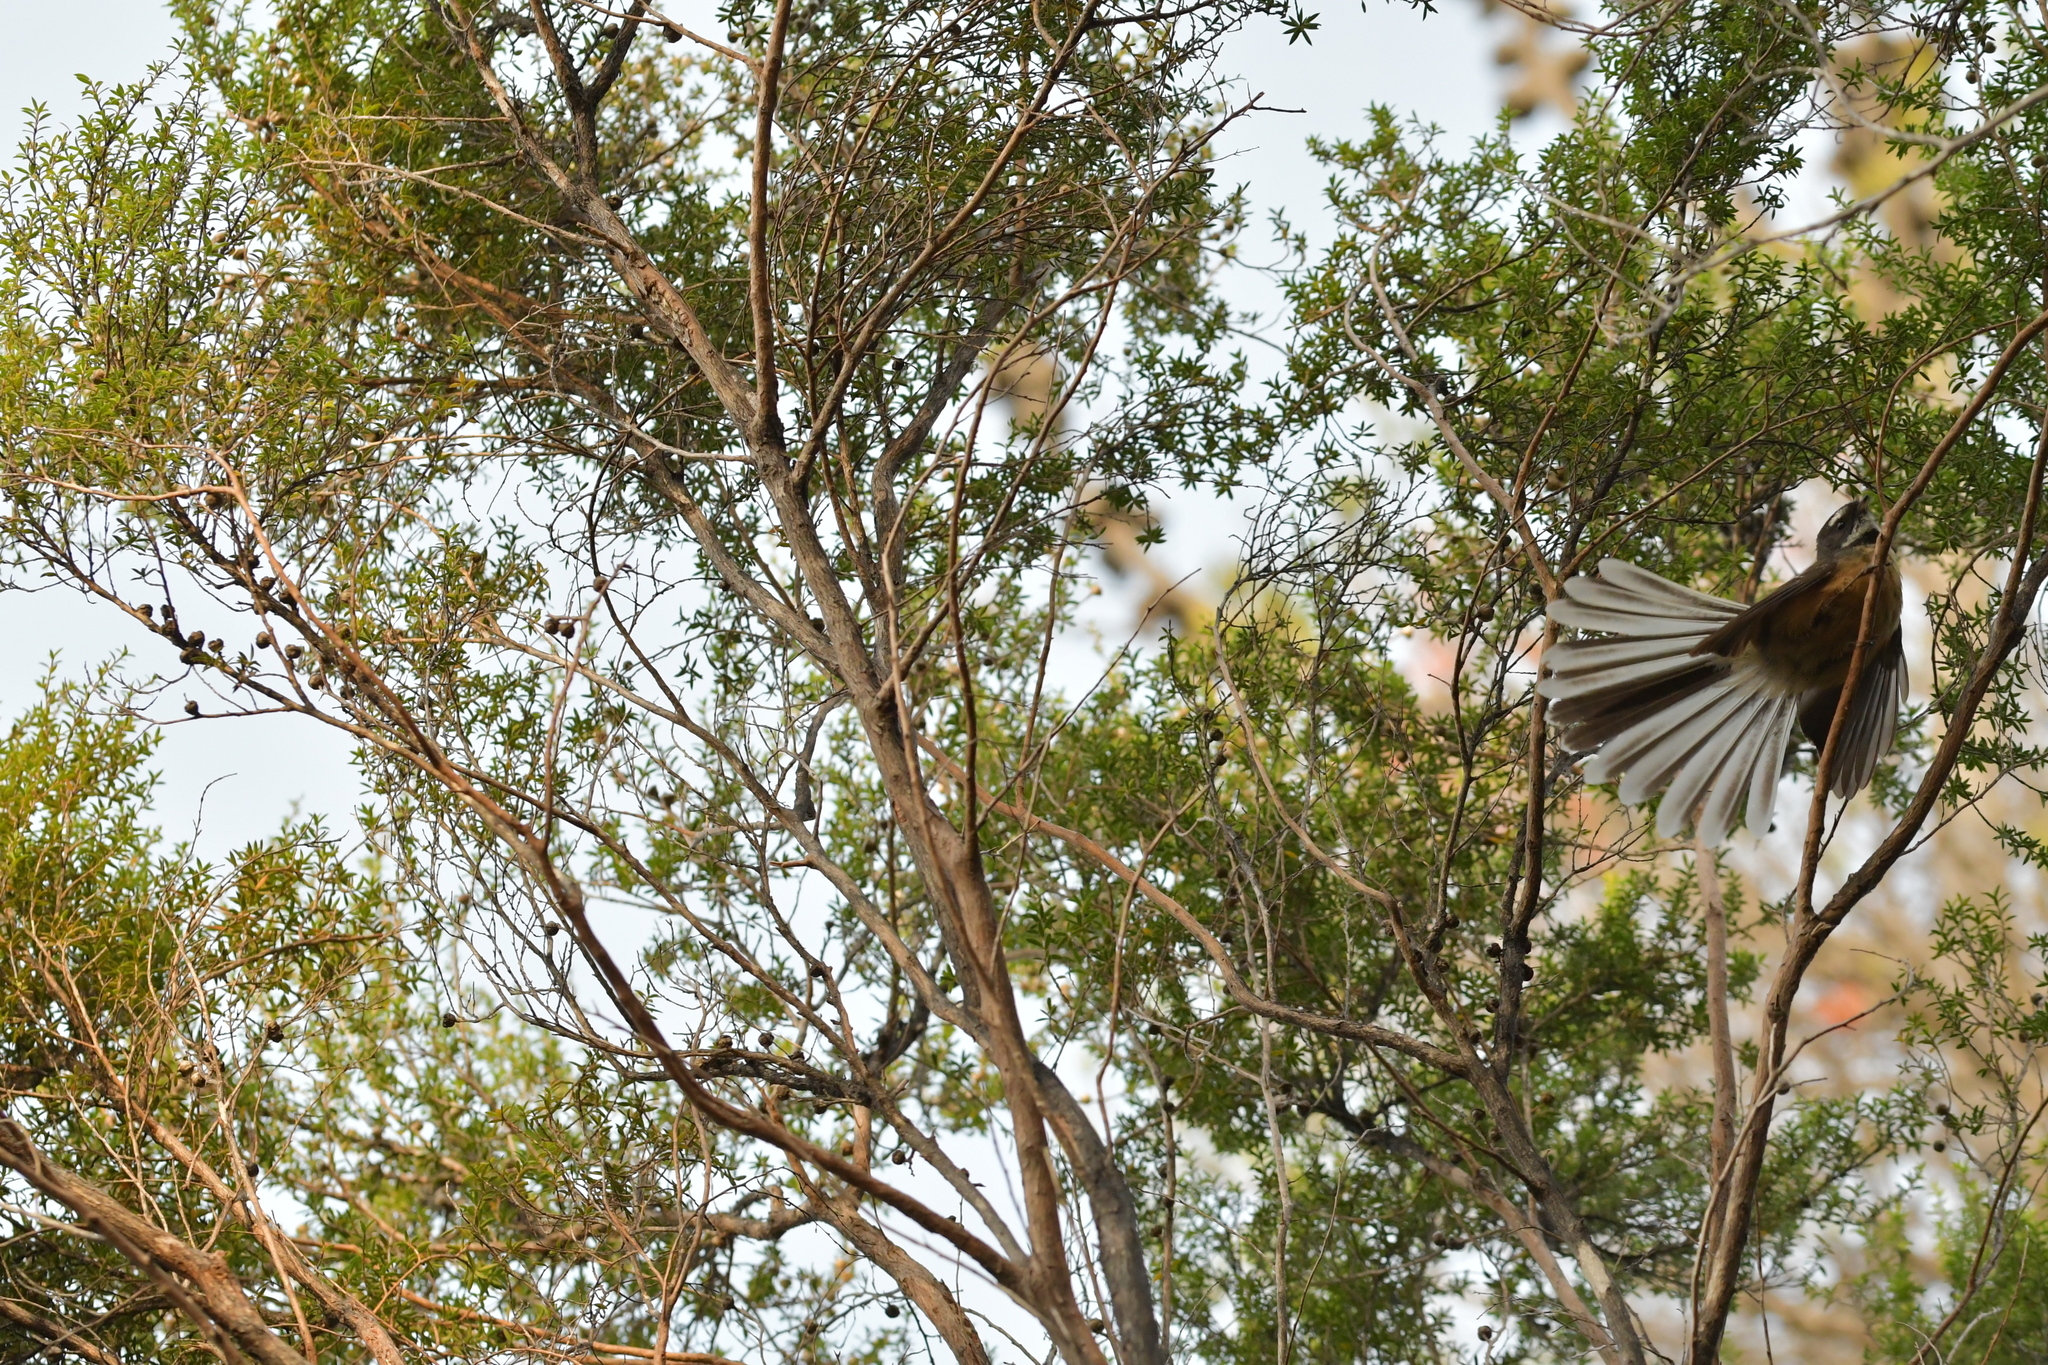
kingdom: Animalia
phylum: Chordata
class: Aves
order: Passeriformes
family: Rhipiduridae
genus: Rhipidura
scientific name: Rhipidura fuliginosa
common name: New zealand fantail
